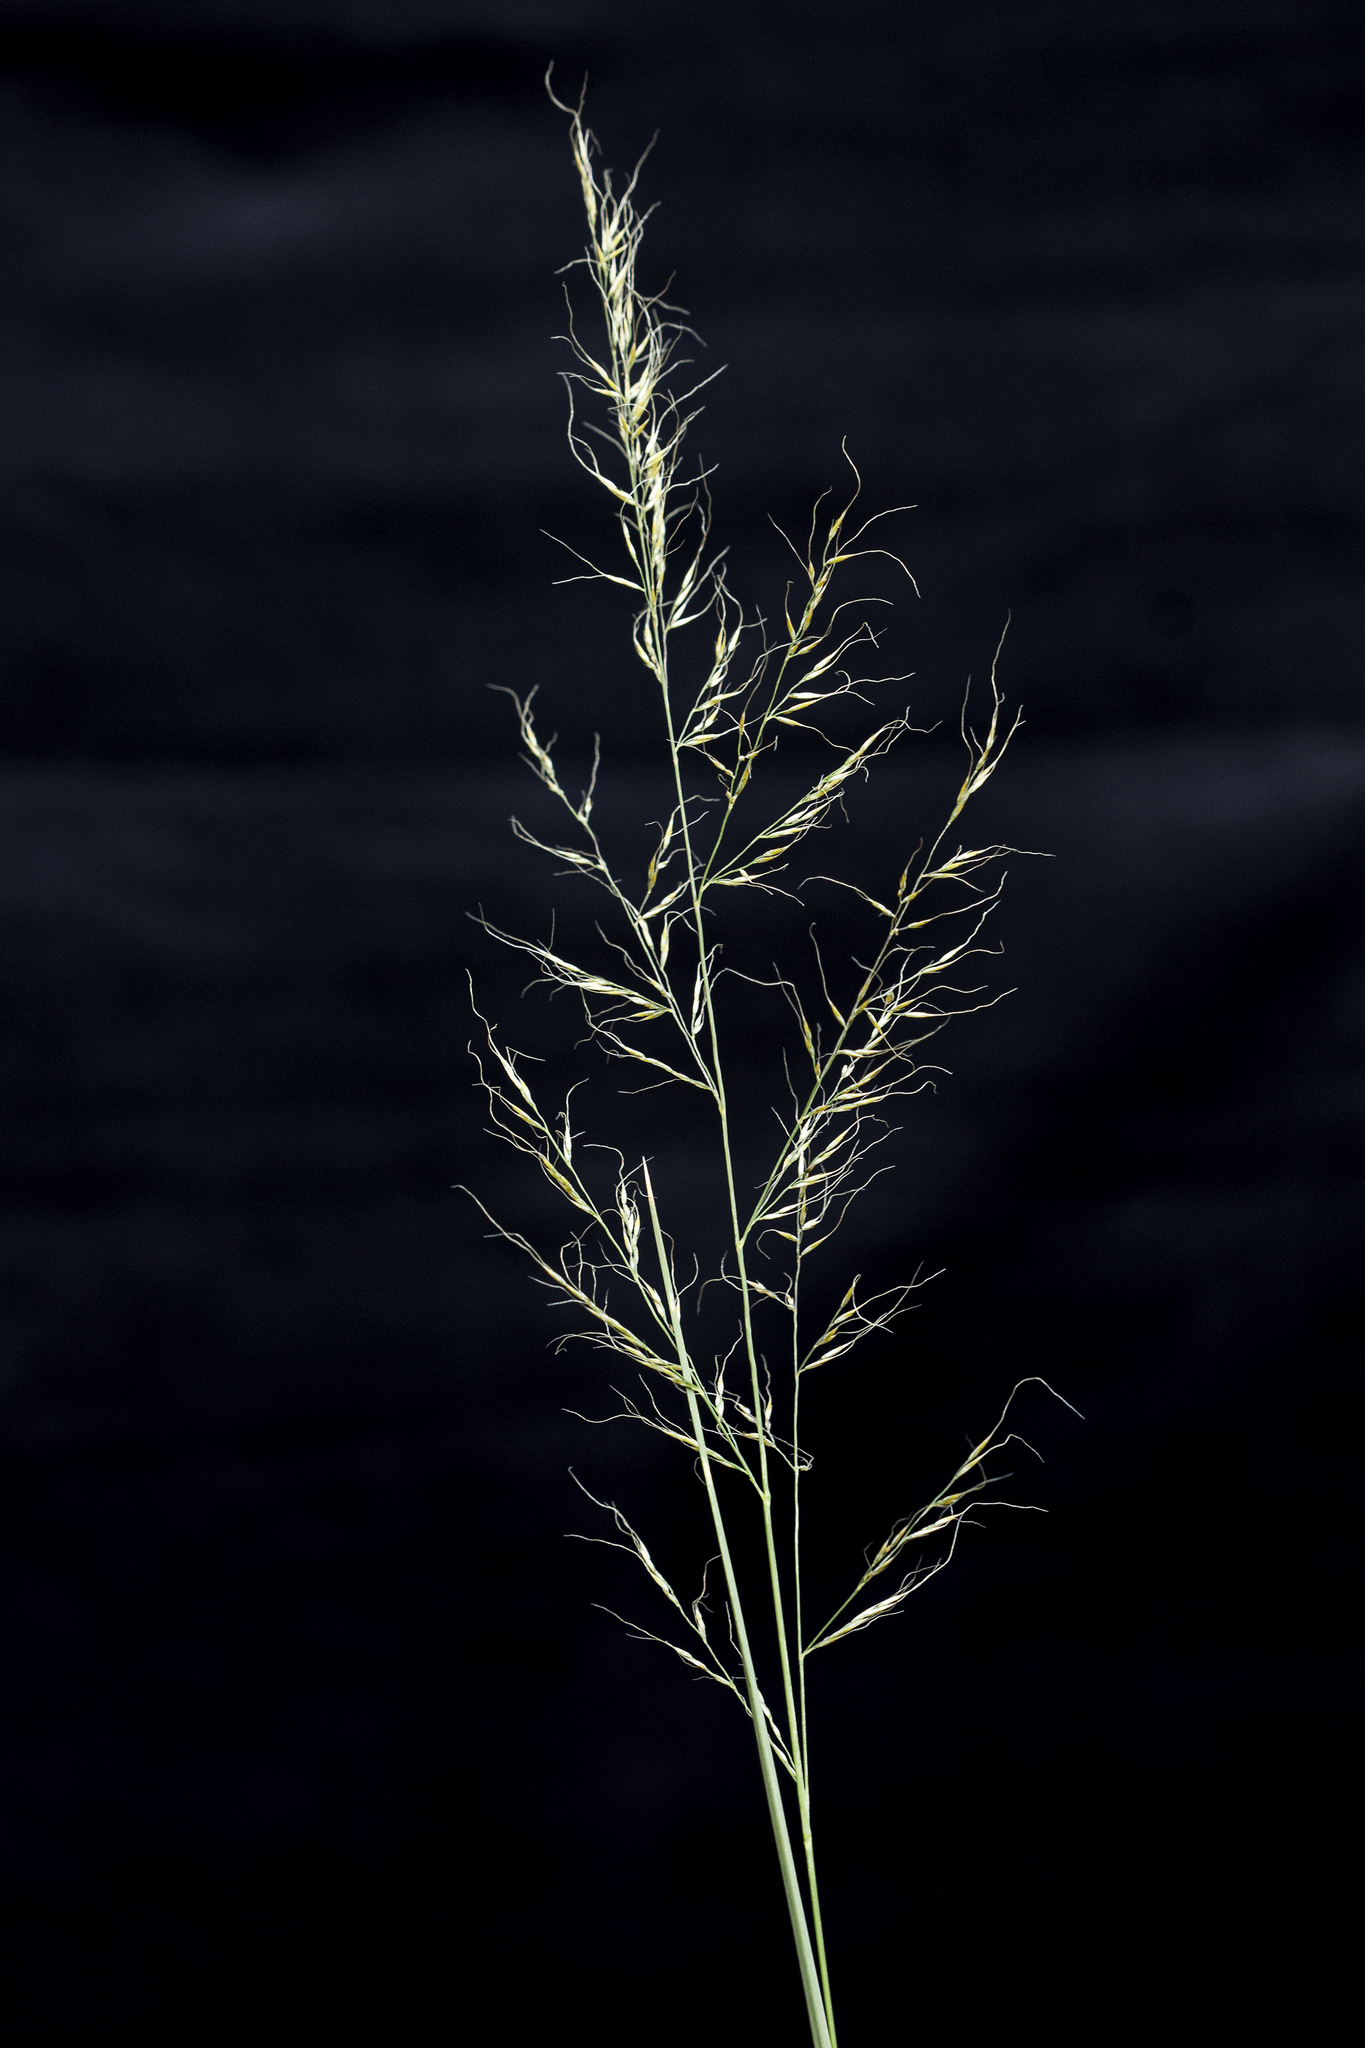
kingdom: Plantae
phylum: Tracheophyta
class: Liliopsida
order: Poales
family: Poaceae
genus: Muhlenbergia
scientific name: Muhlenbergia montana
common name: Mountain muhly
